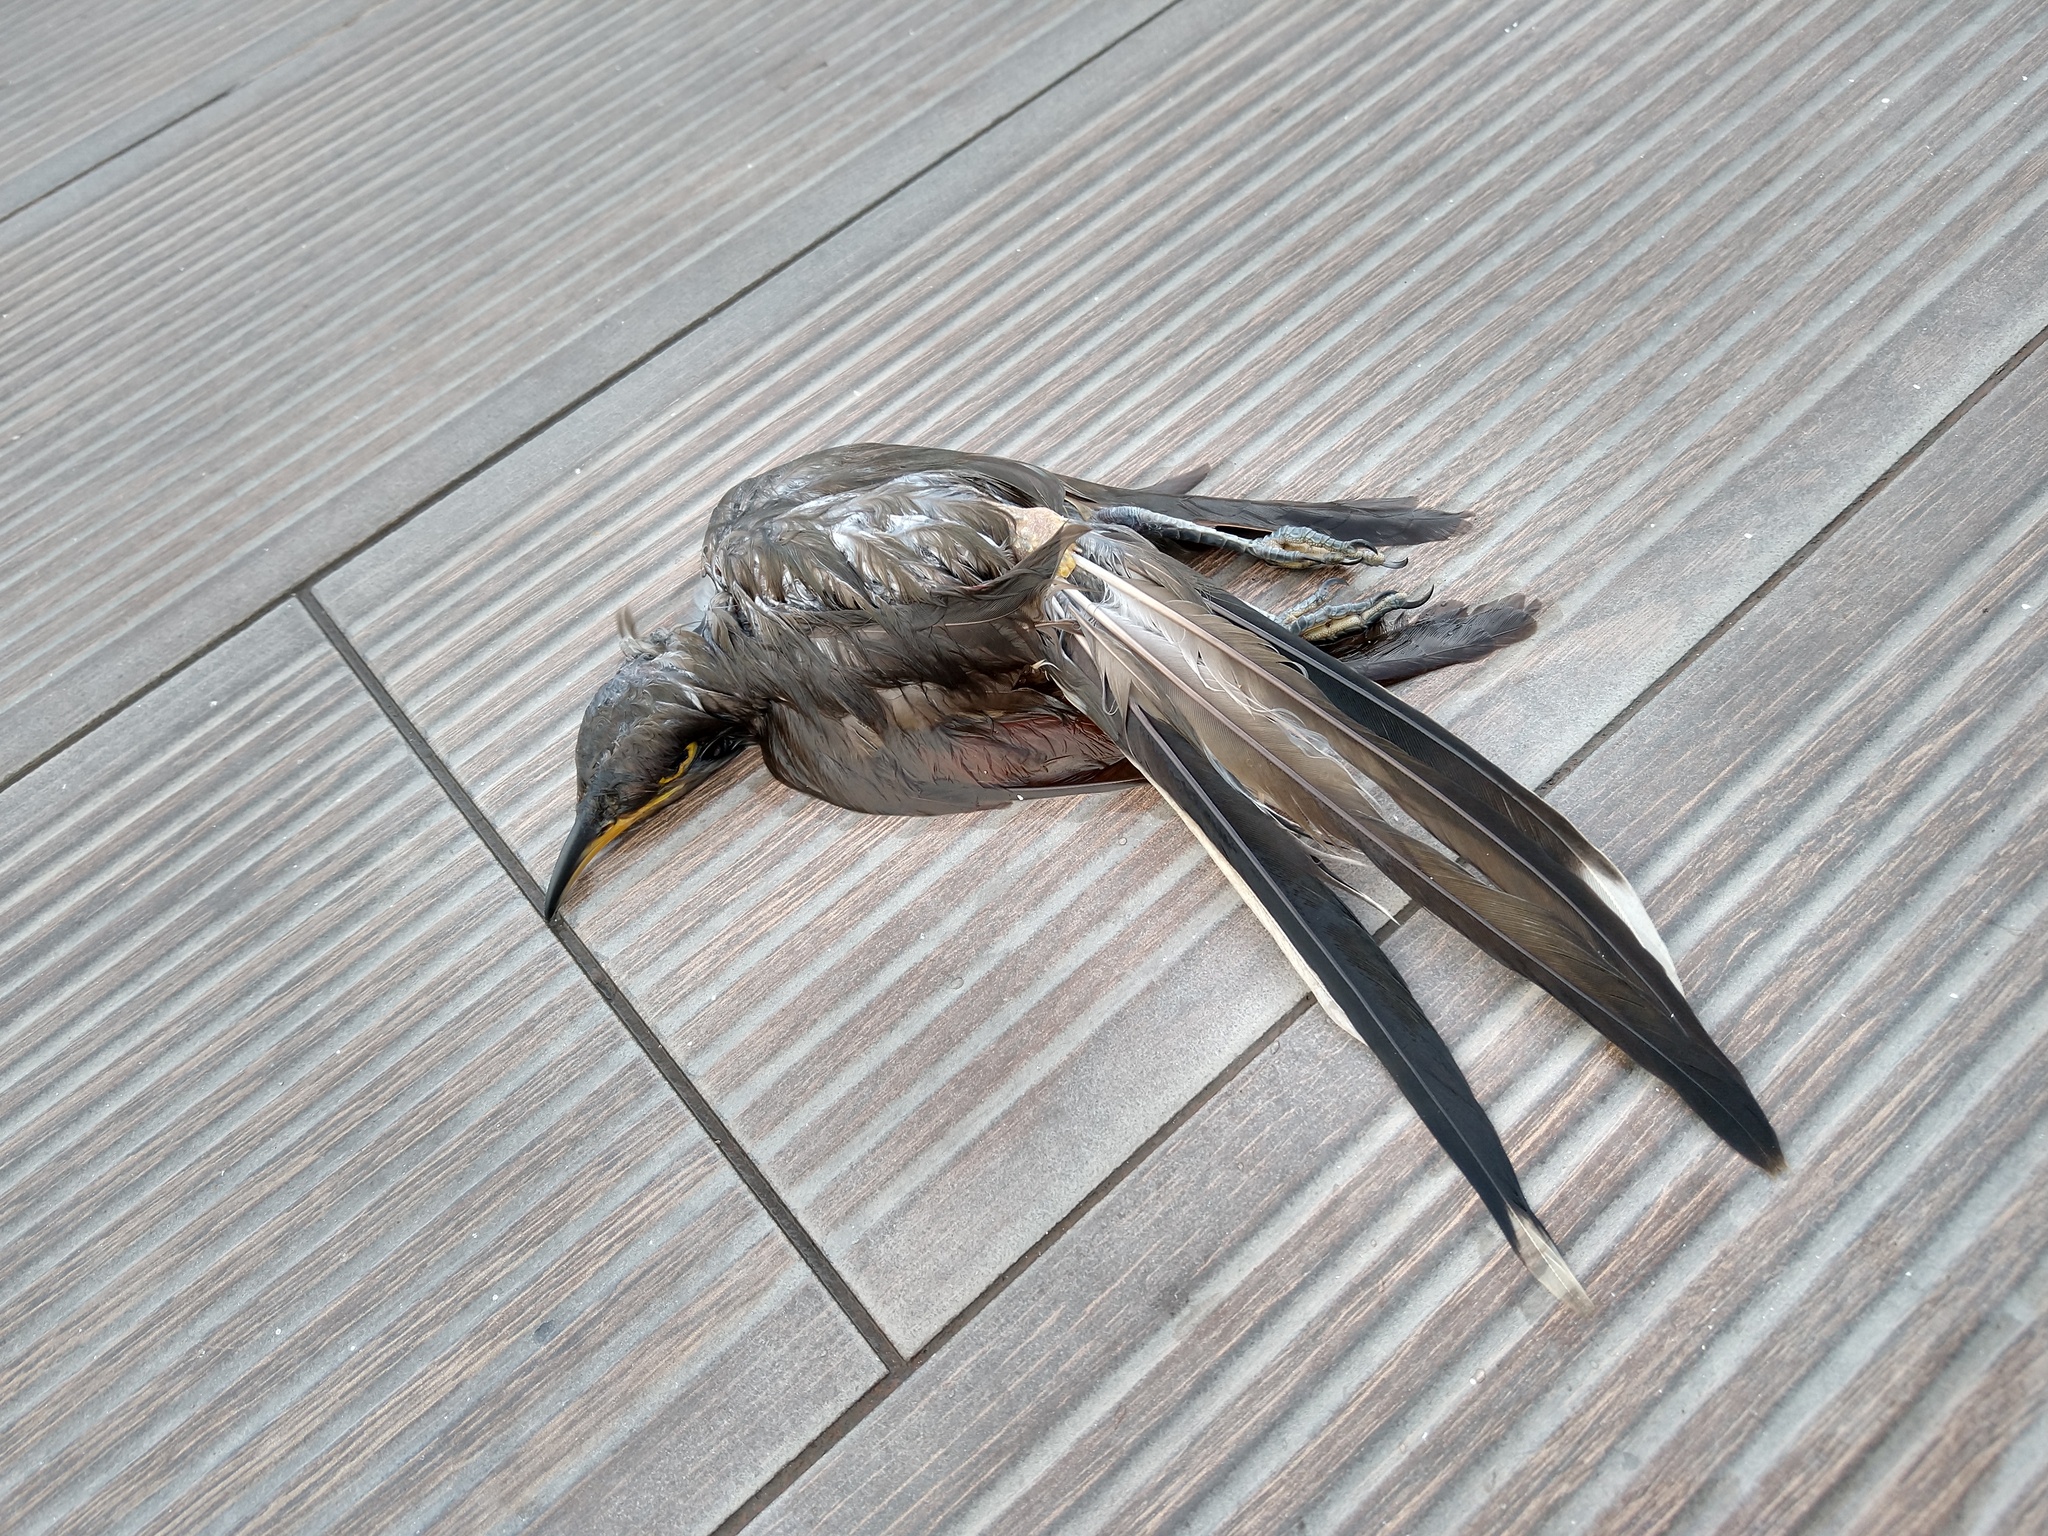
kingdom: Animalia
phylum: Chordata
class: Aves
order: Cuculiformes
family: Cuculidae
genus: Coccyzus
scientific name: Coccyzus americanus
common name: Yellow-billed cuckoo
